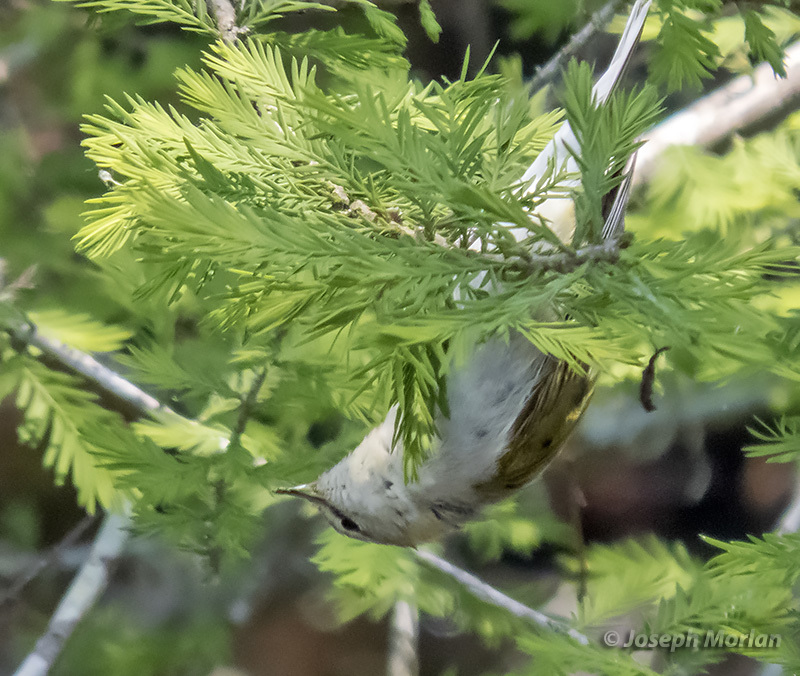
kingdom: Animalia
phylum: Chordata
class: Aves
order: Passeriformes
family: Parulidae
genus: Leiothlypis
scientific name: Leiothlypis peregrina
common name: Tennessee warbler
